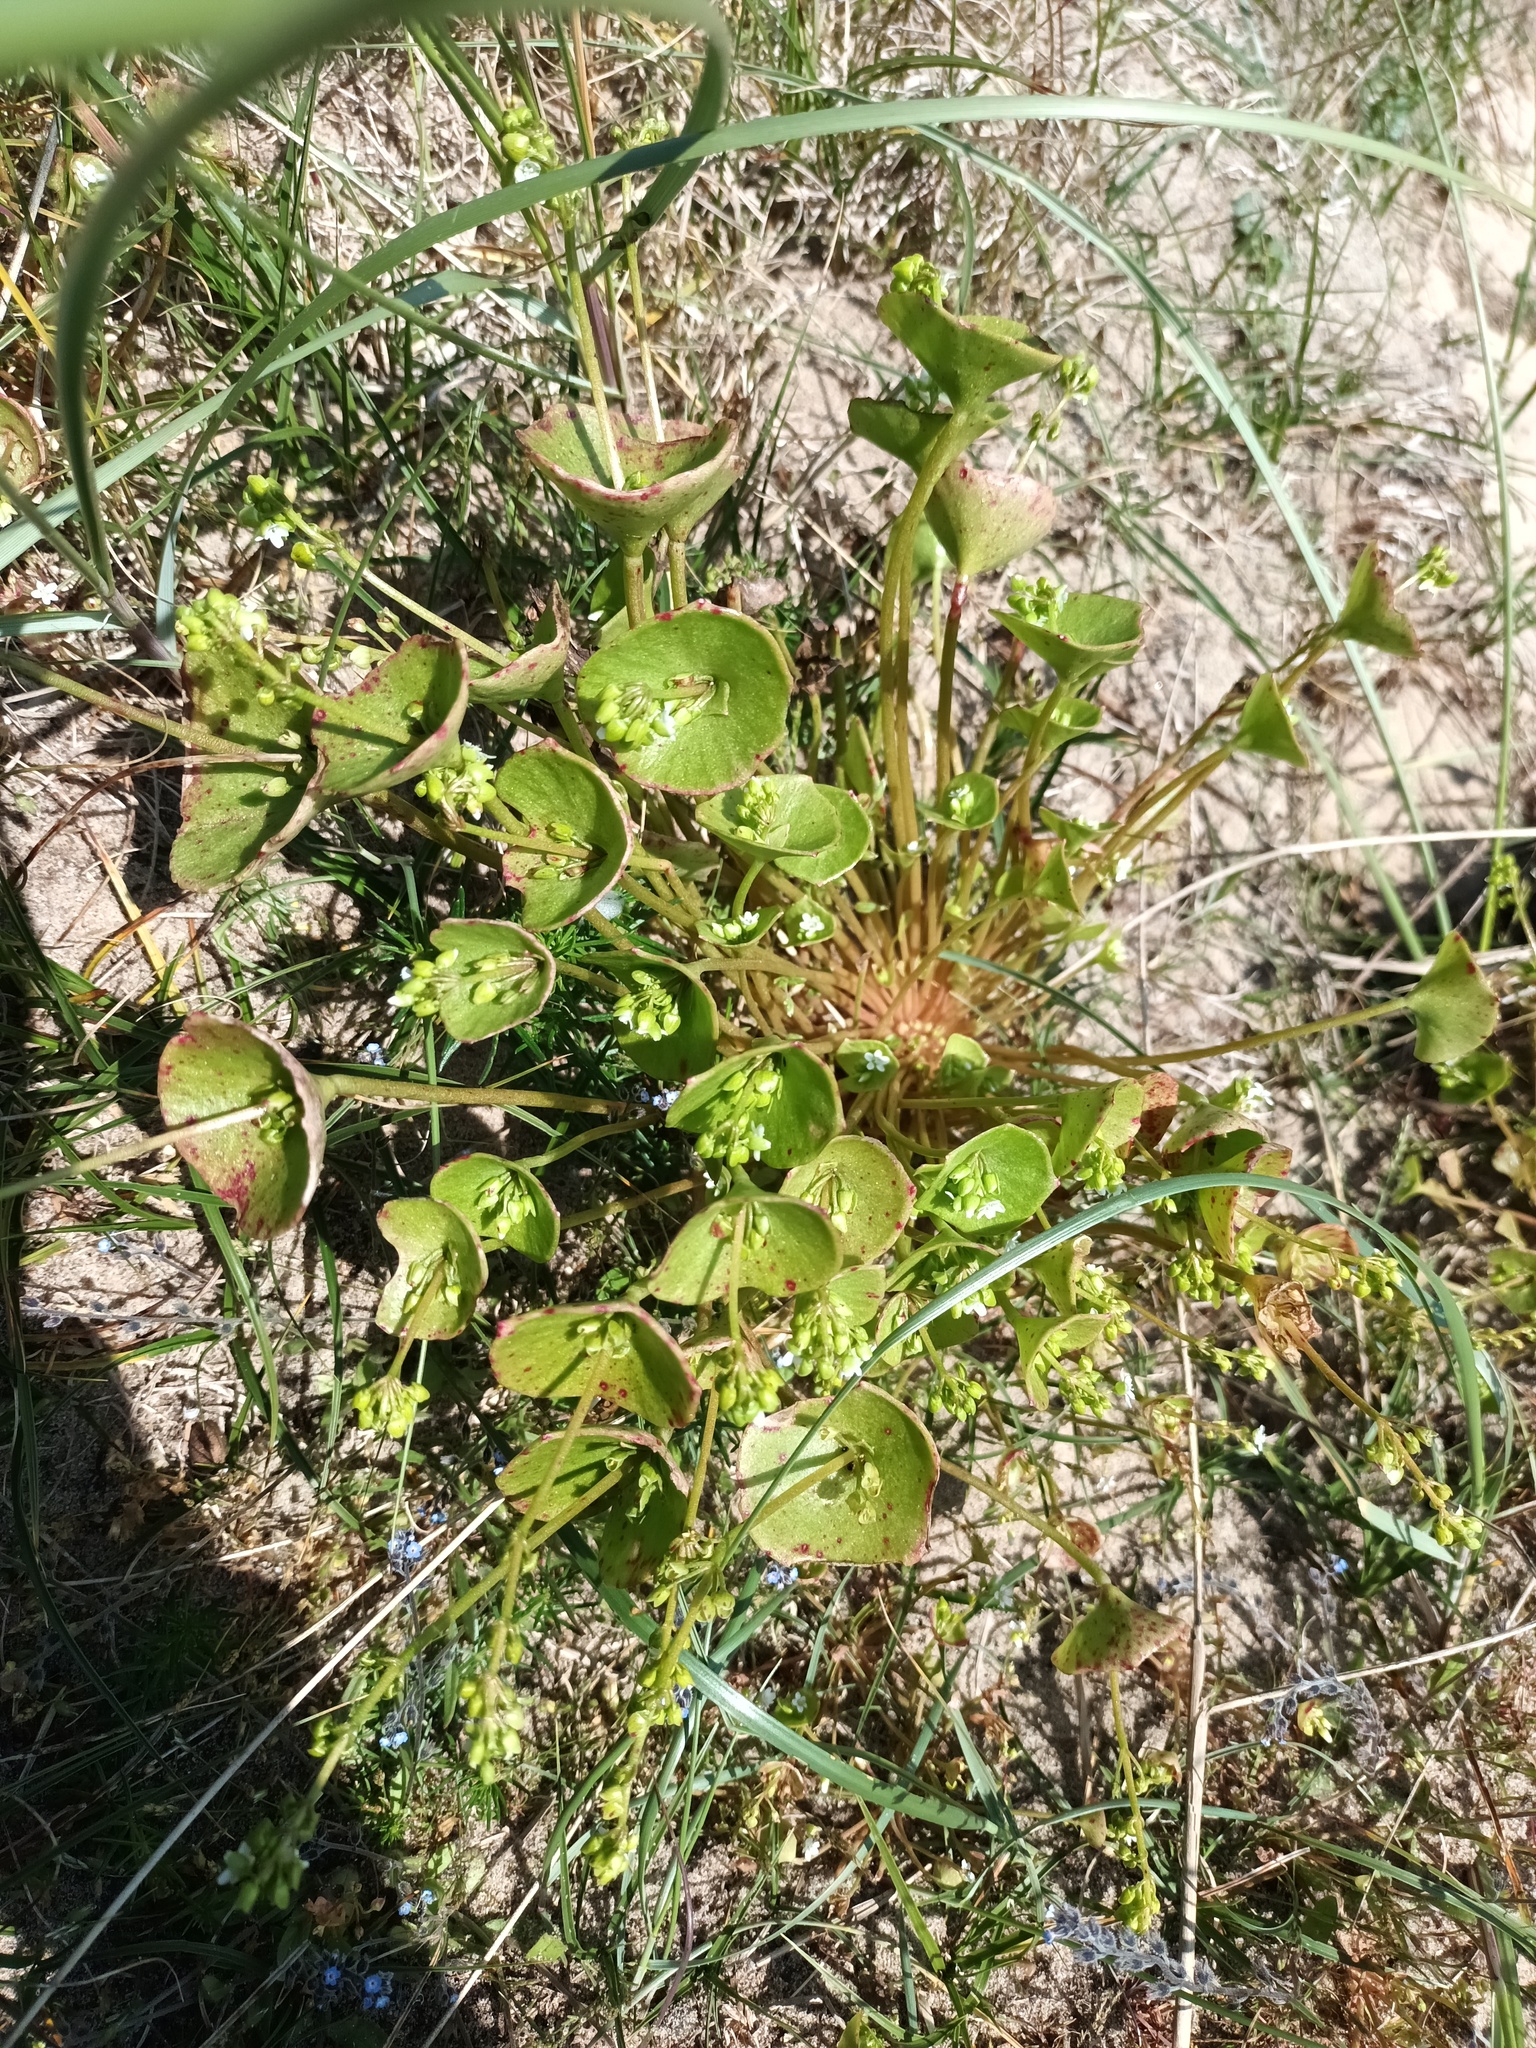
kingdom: Plantae
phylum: Tracheophyta
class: Magnoliopsida
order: Caryophyllales
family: Montiaceae
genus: Claytonia
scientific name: Claytonia perfoliata
